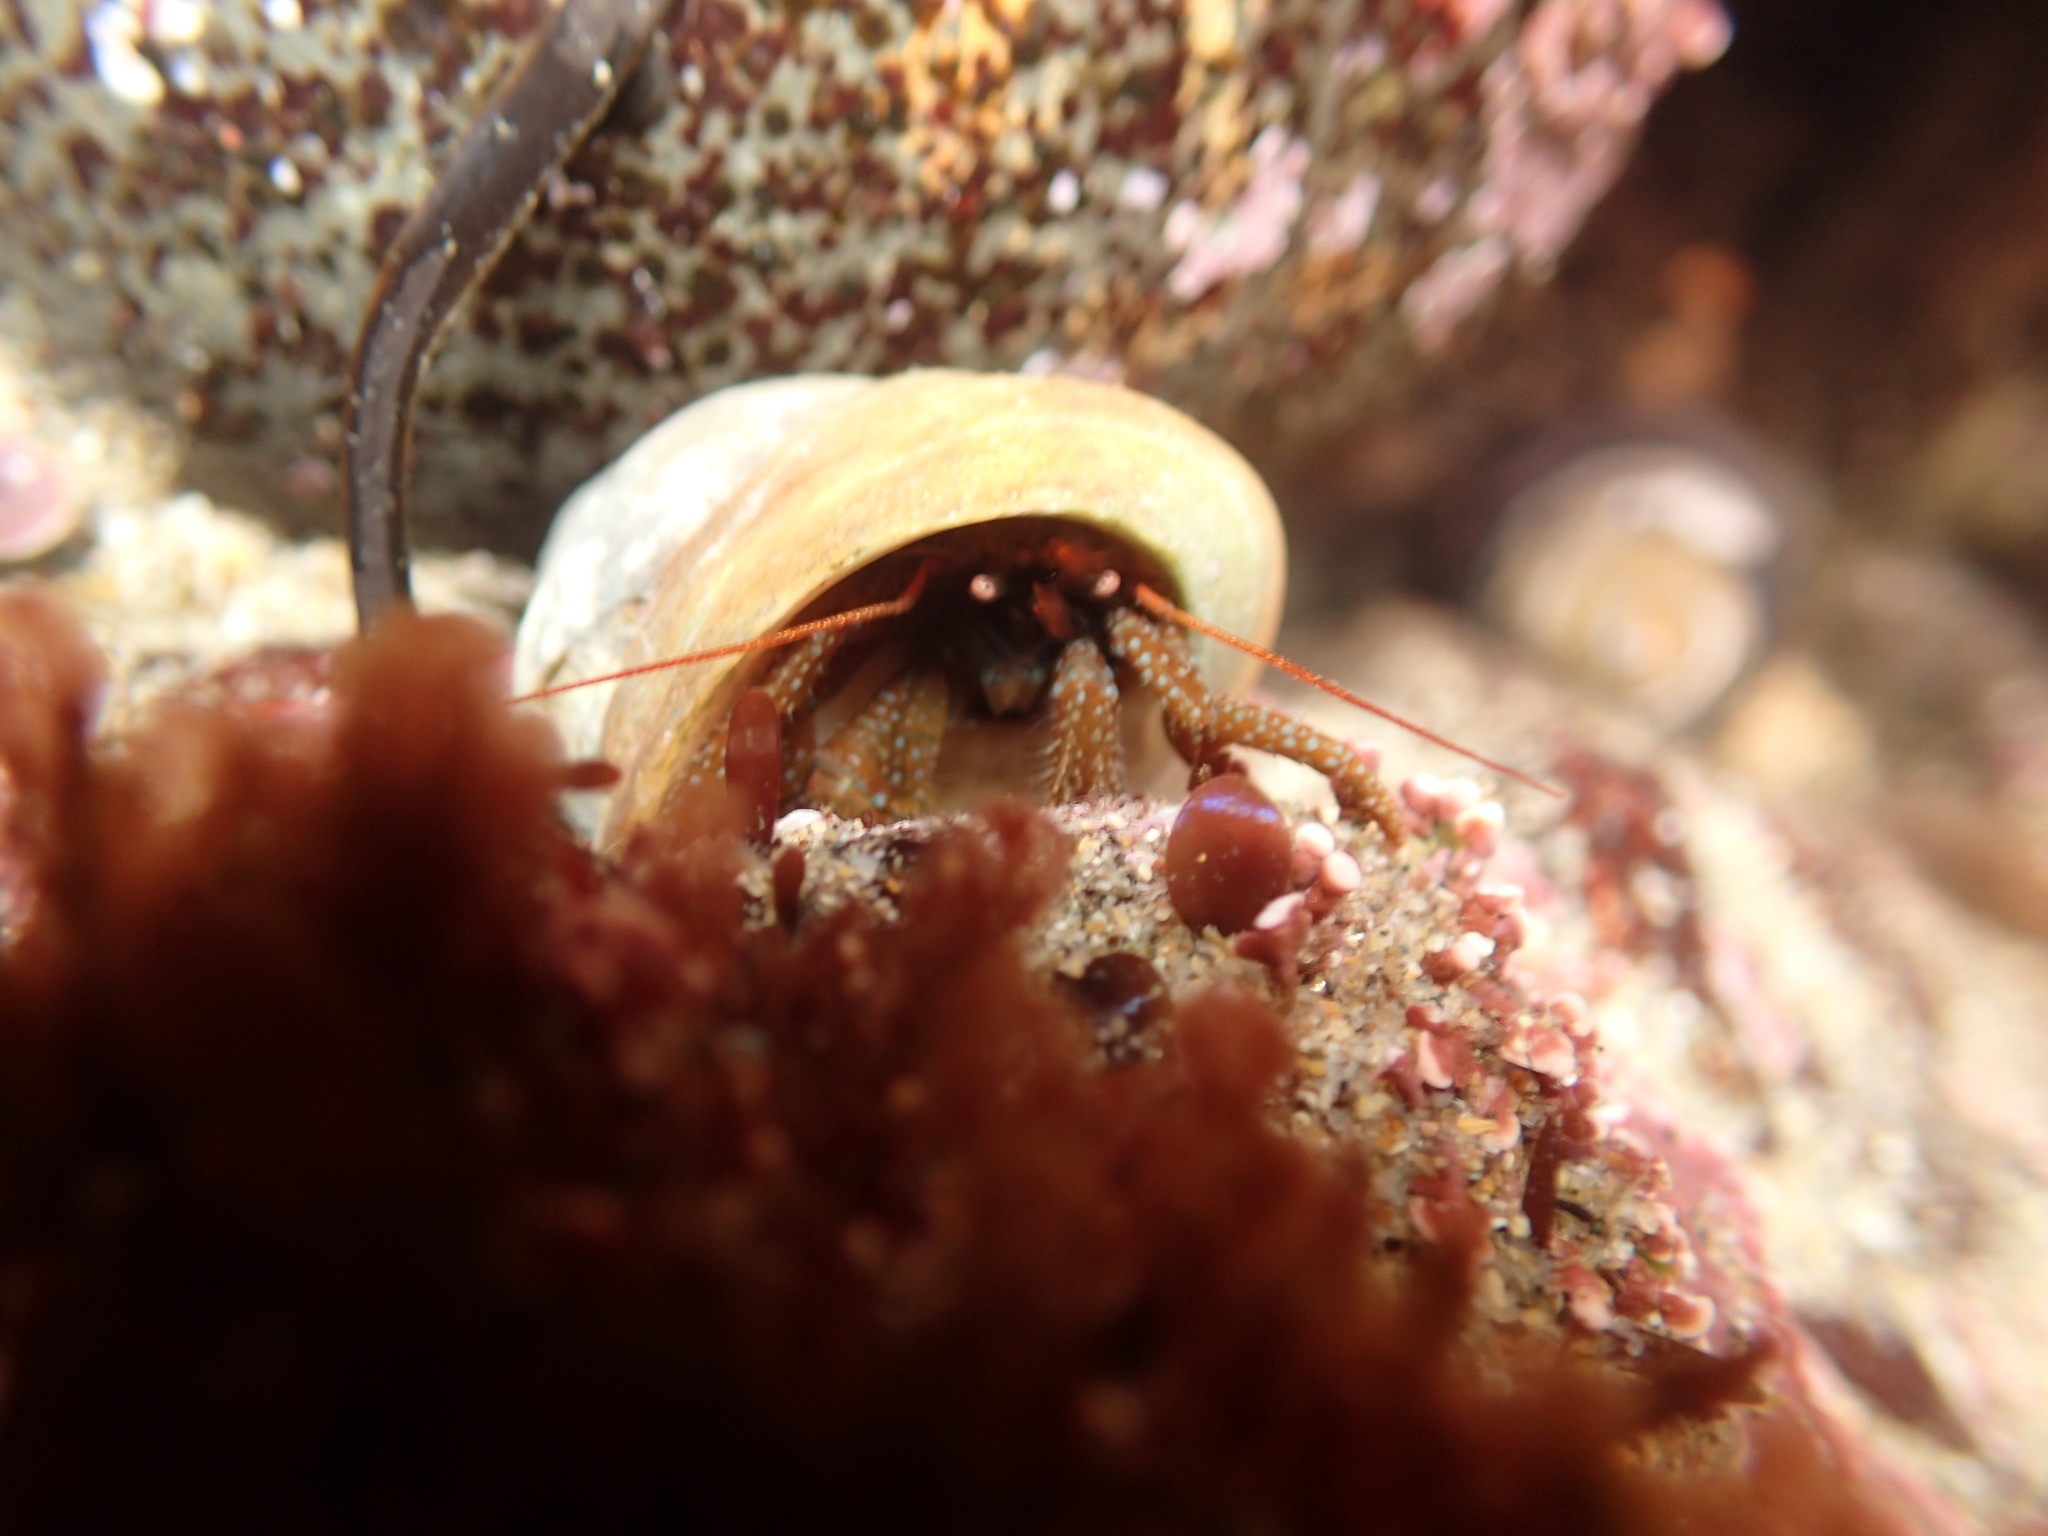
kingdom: Animalia
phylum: Arthropoda
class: Malacostraca
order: Decapoda
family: Paguridae
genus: Pagurus
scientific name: Pagurus granosimanus
